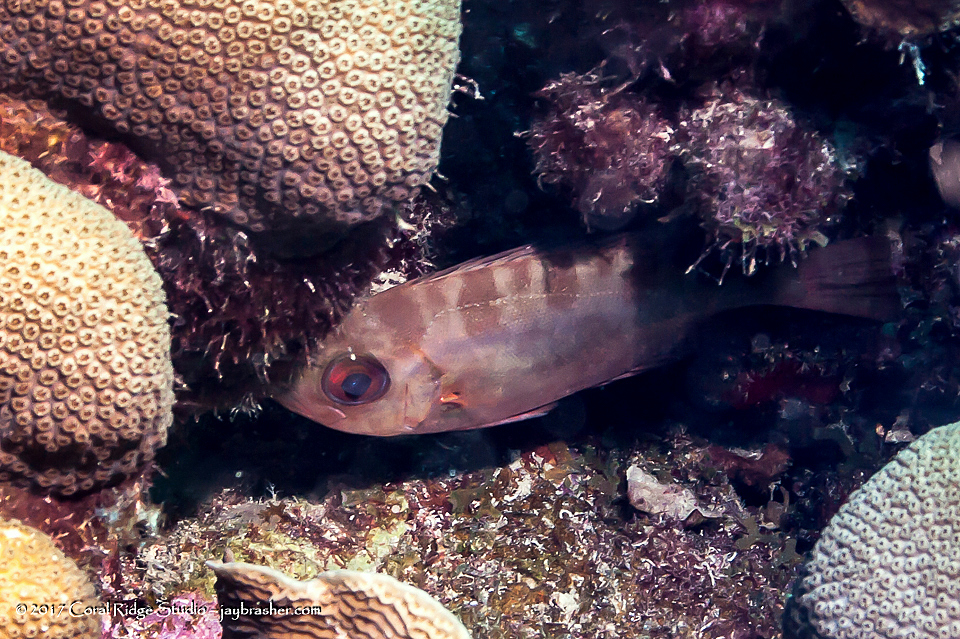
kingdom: Animalia
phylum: Chordata
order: Perciformes
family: Priacanthidae
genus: Heteropriacanthus
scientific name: Heteropriacanthus cruentatus
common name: Glasseye
